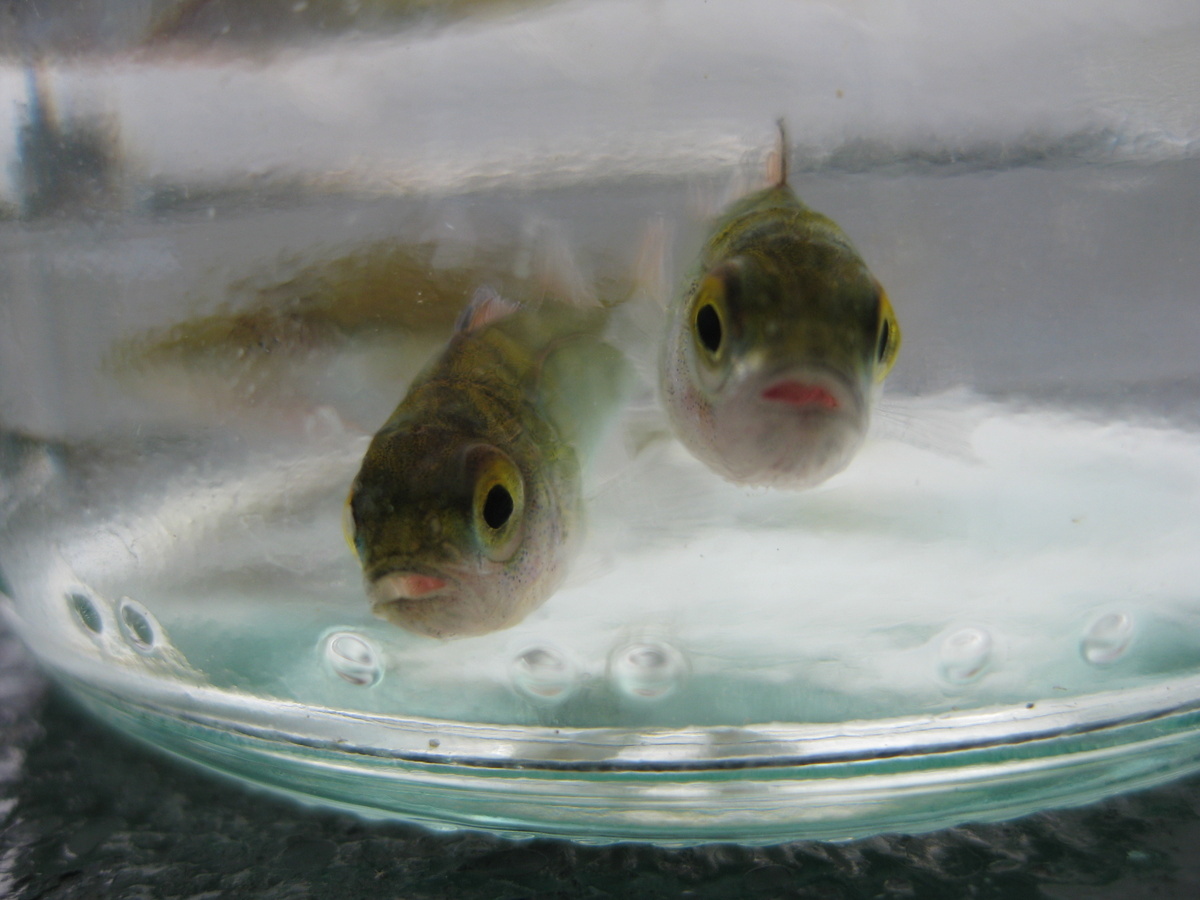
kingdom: Animalia
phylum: Chordata
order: Perciformes
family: Percidae
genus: Perca
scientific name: Perca fluviatilis
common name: Perch
